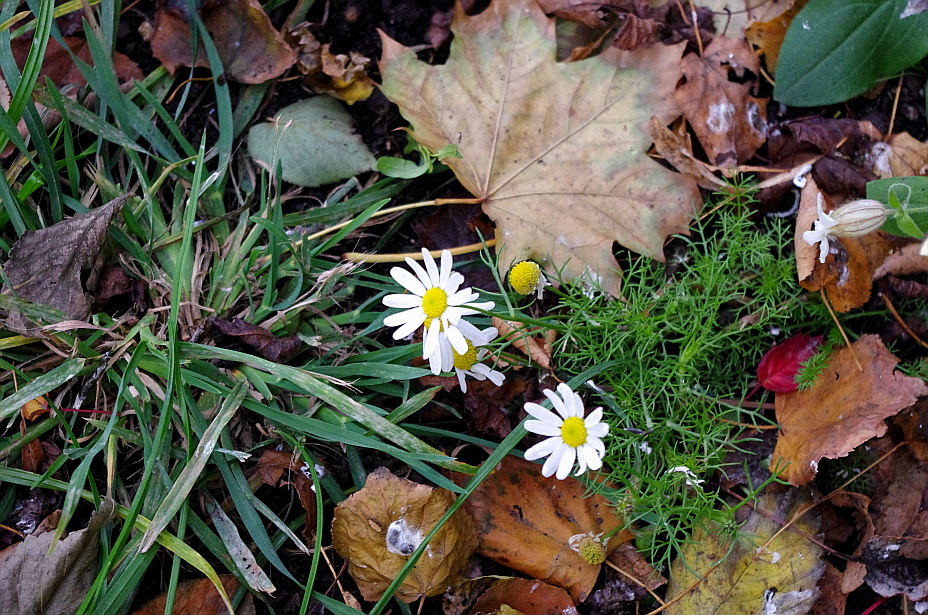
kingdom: Plantae
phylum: Tracheophyta
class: Magnoliopsida
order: Asterales
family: Asteraceae
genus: Tripleurospermum
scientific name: Tripleurospermum inodorum
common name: Scentless mayweed
